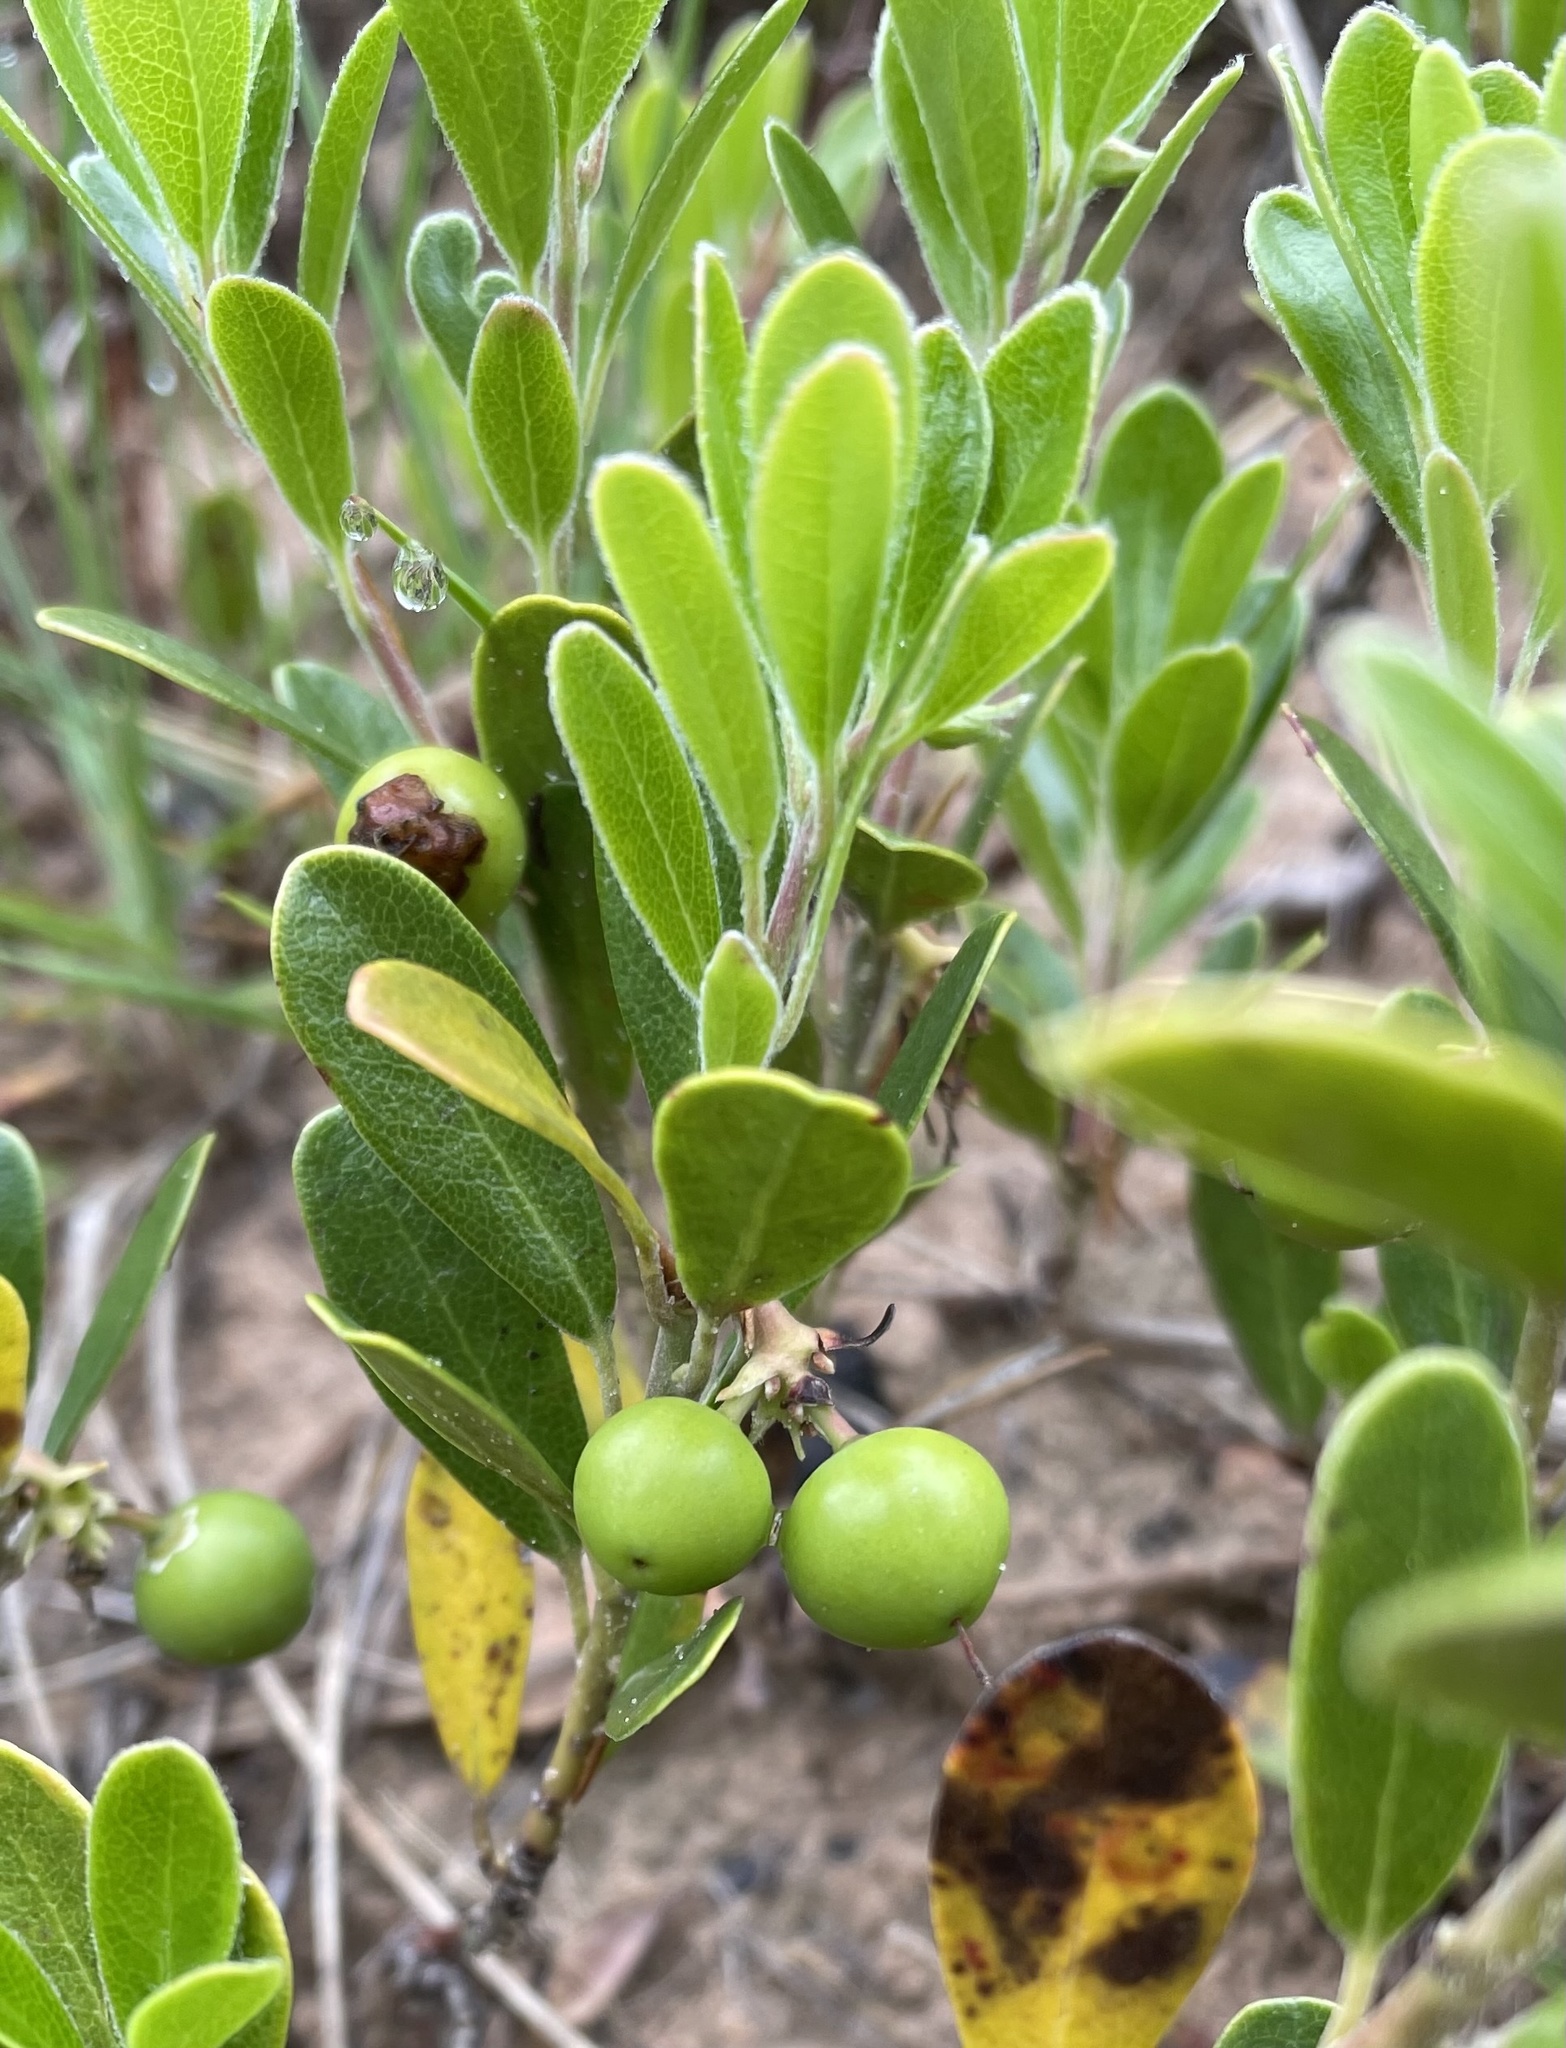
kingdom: Plantae
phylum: Tracheophyta
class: Magnoliopsida
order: Ericales
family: Ericaceae
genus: Arctostaphylos
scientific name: Arctostaphylos uva-ursi
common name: Bearberry
